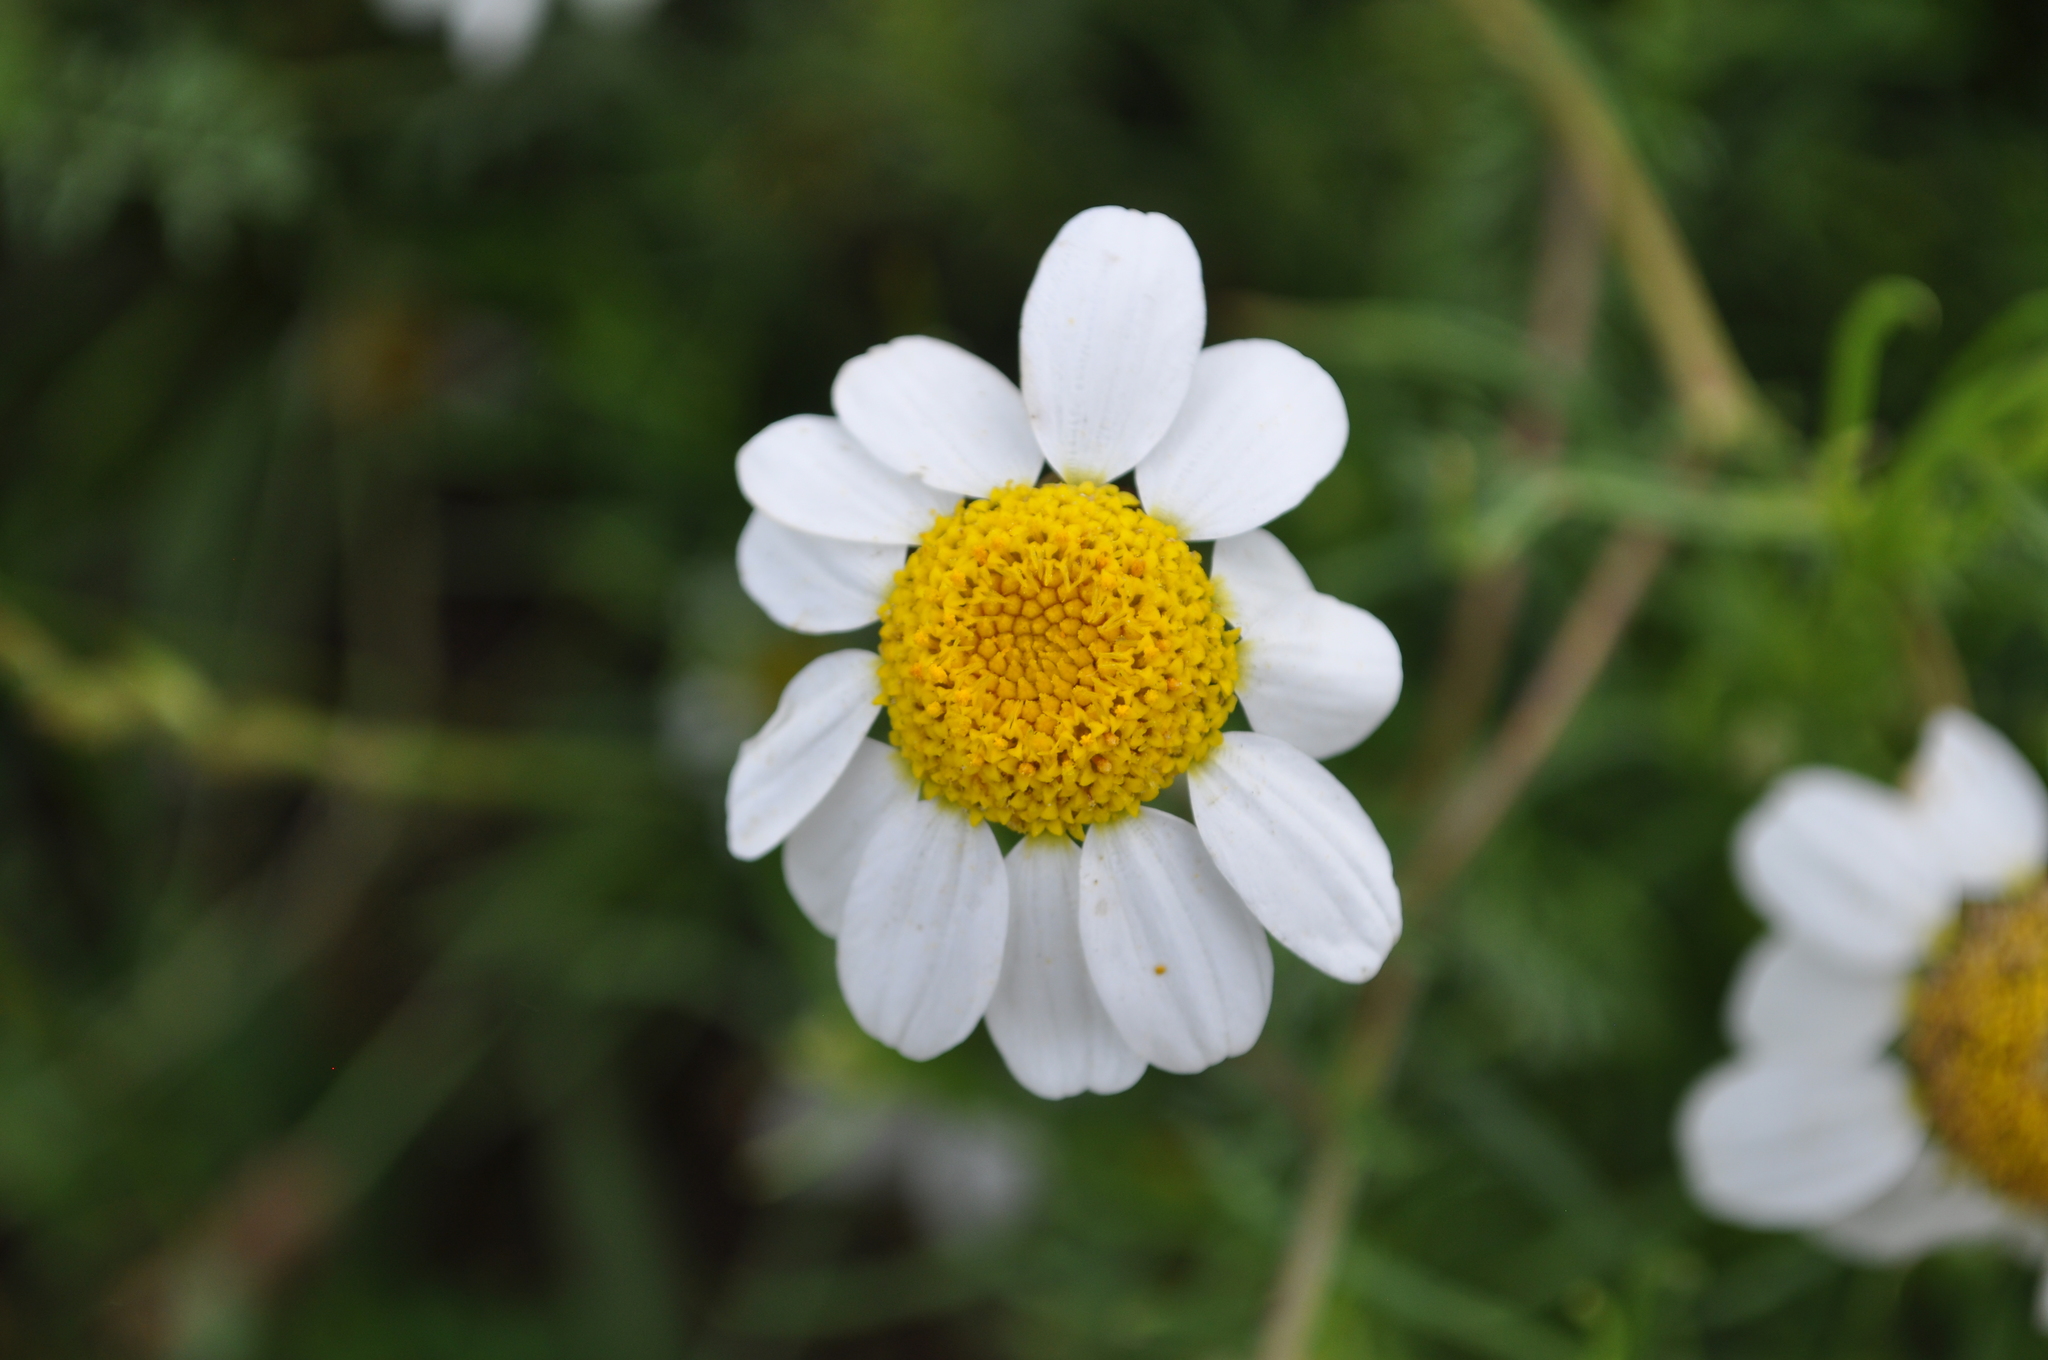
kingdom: Plantae
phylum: Tracheophyta
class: Magnoliopsida
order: Asterales
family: Asteraceae
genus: Anacyclus
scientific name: Anacyclus clavatus
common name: Whitebuttons
